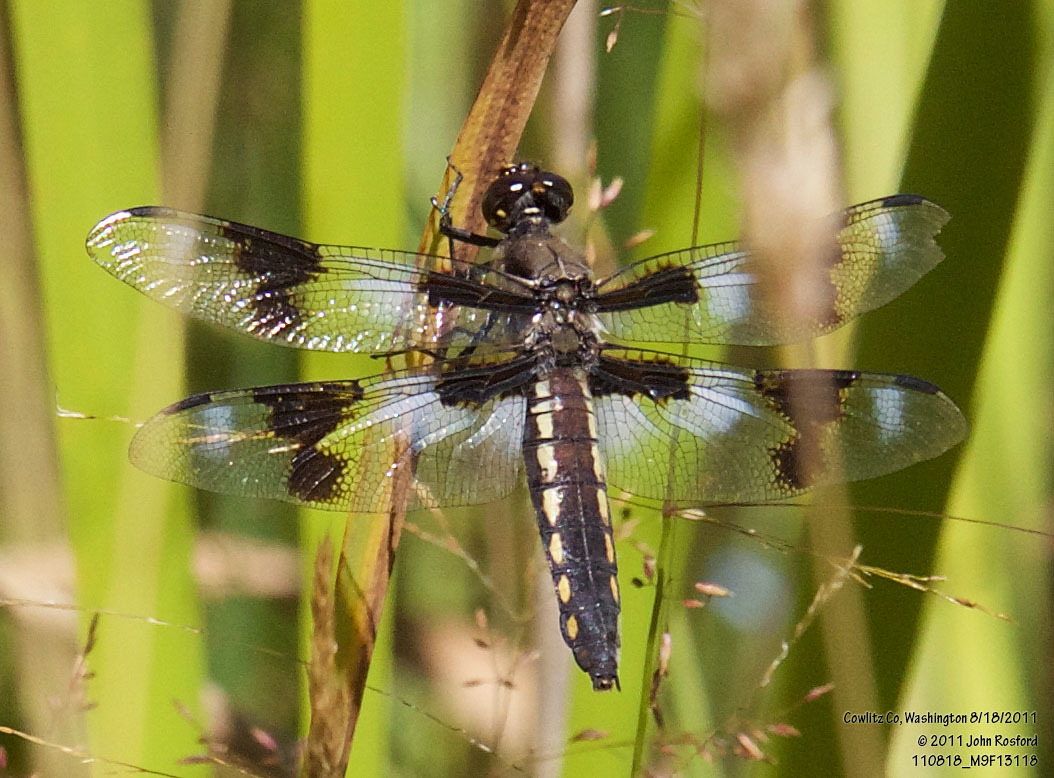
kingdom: Animalia
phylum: Arthropoda
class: Insecta
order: Odonata
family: Libellulidae
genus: Libellula
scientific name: Libellula forensis
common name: Eight-spotted skimmer
